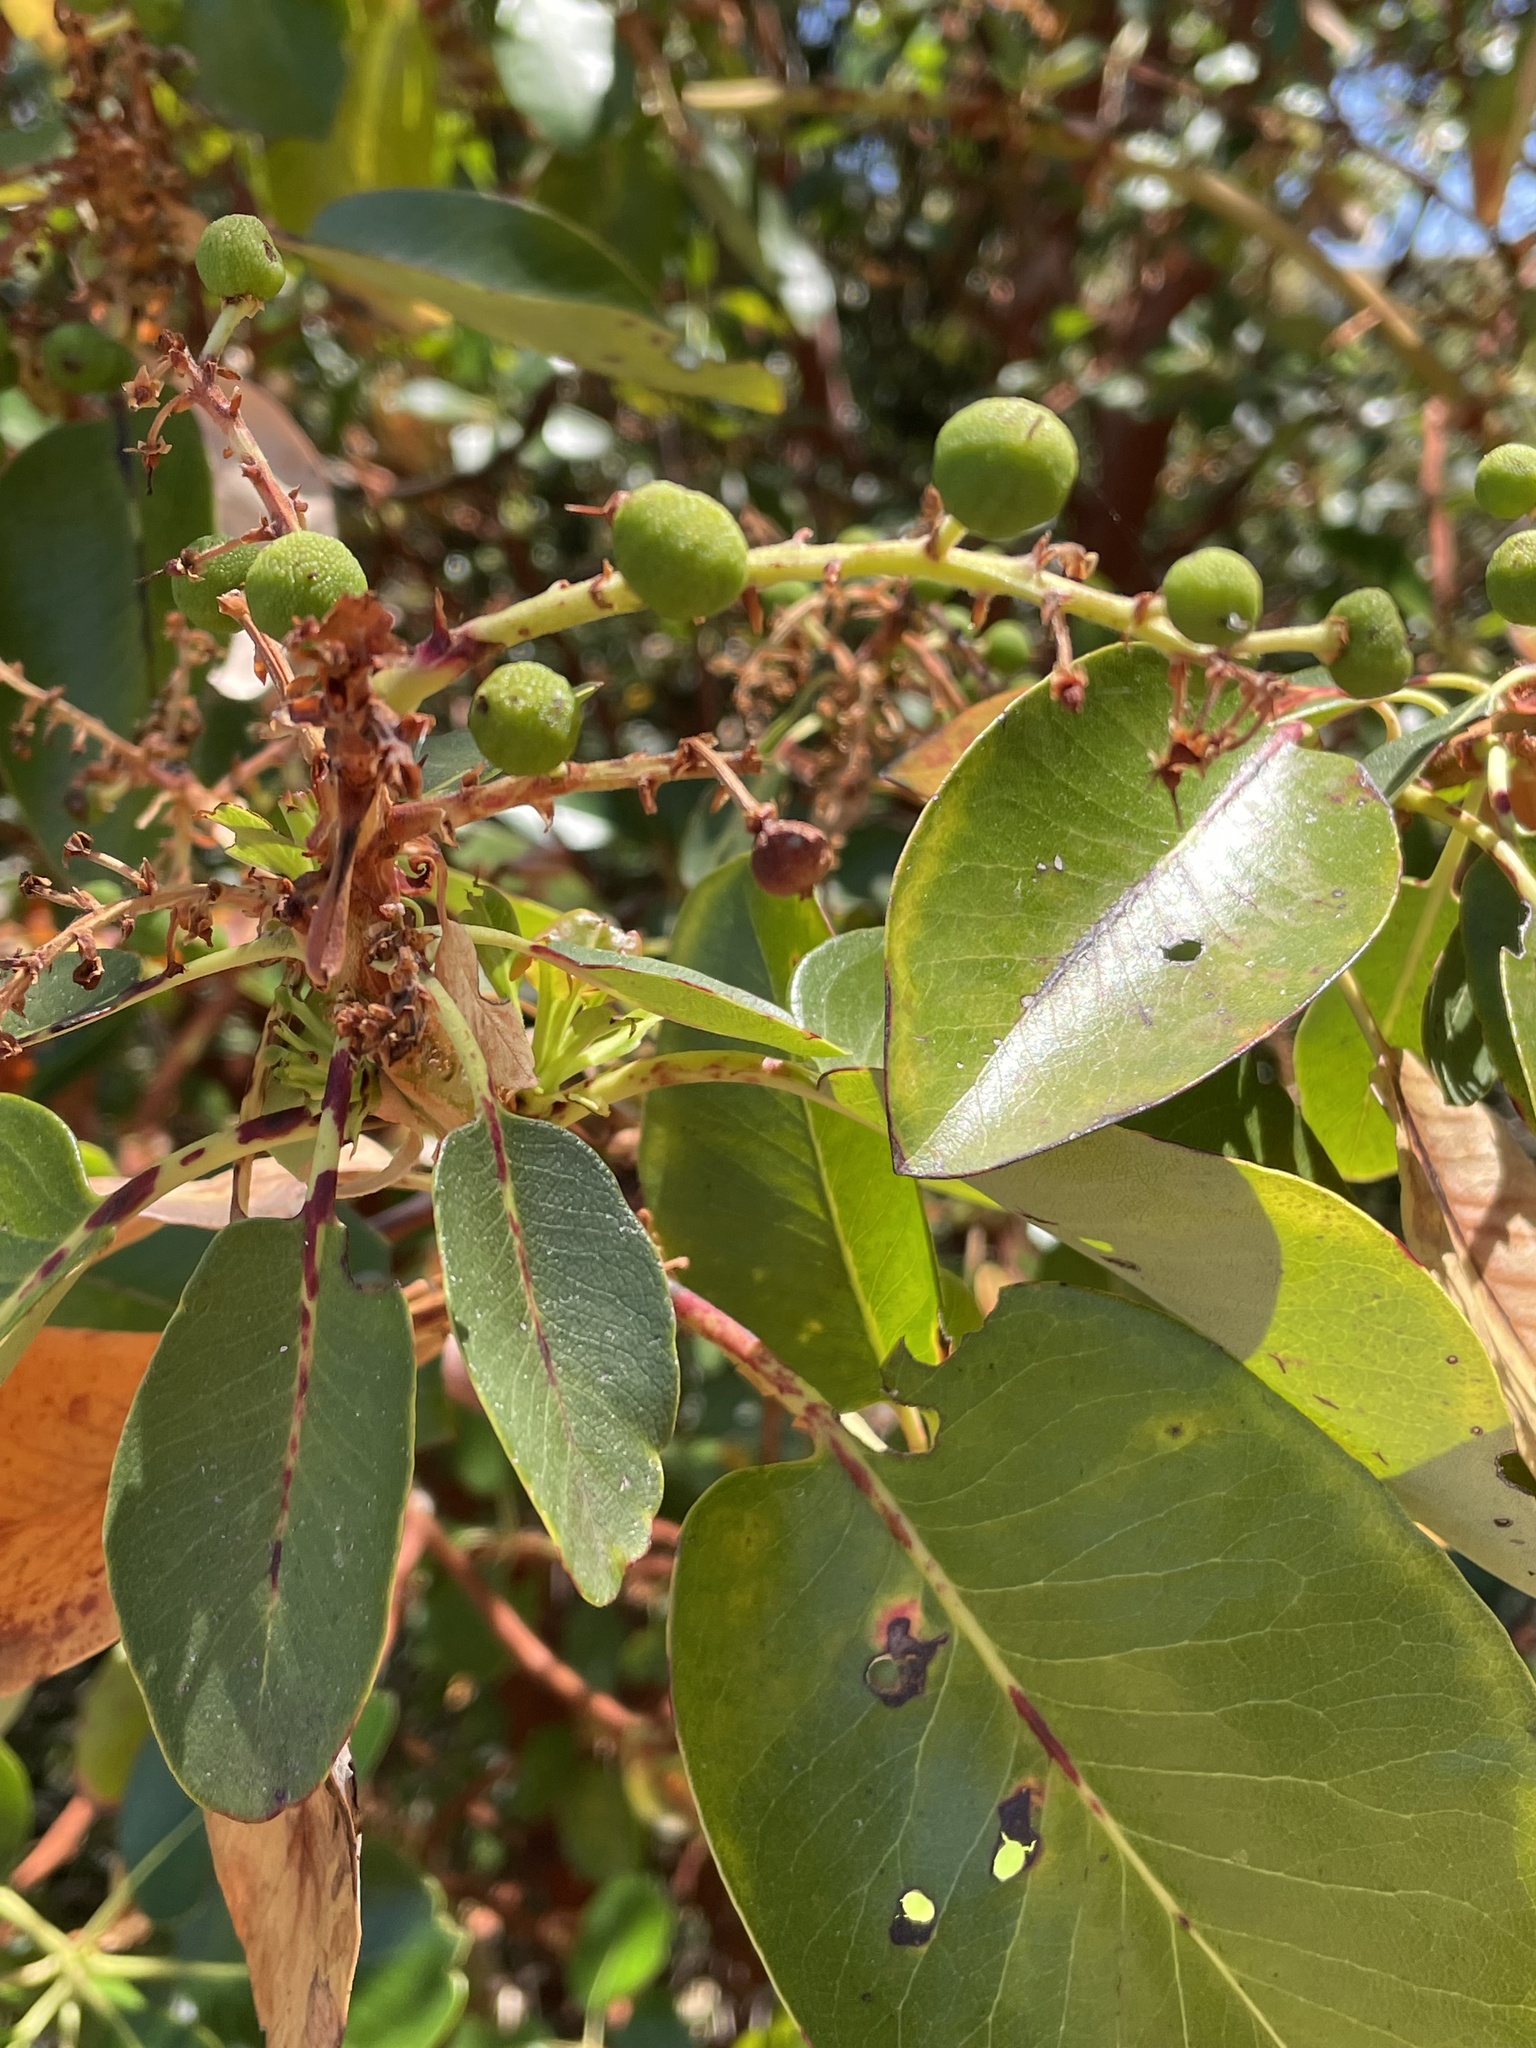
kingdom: Plantae
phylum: Tracheophyta
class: Magnoliopsida
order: Ericales
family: Ericaceae
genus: Arbutus
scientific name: Arbutus menziesii
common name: Pacific madrone
